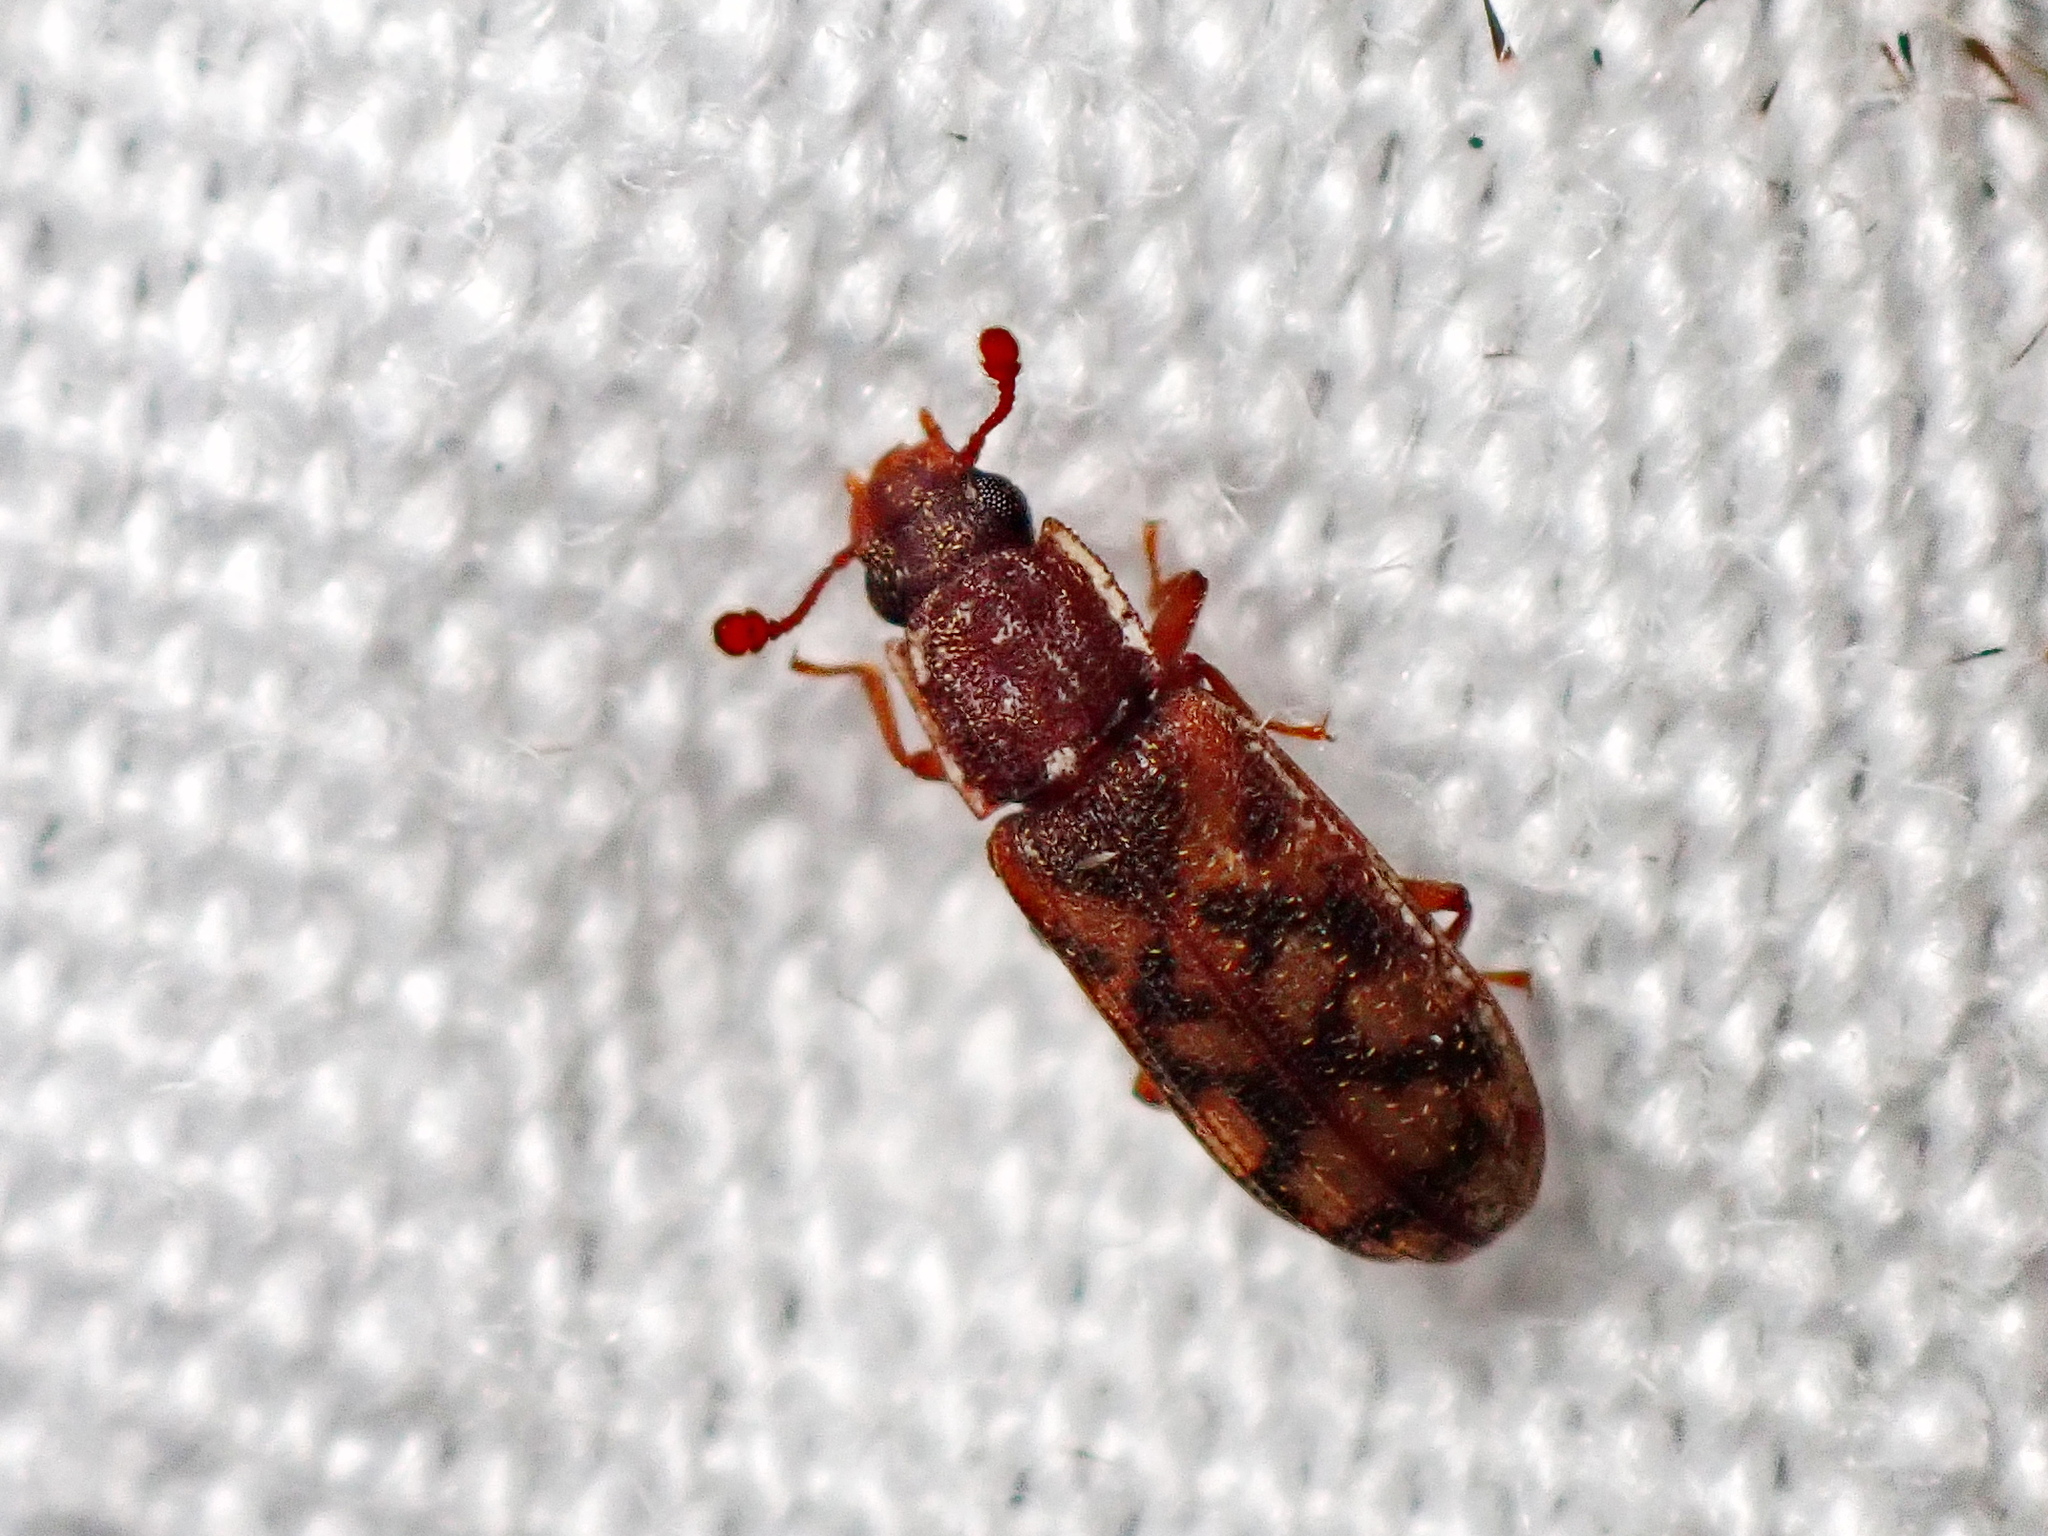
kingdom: Animalia
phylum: Arthropoda
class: Insecta
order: Coleoptera
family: Zopheridae
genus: Bitoma
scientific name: Bitoma insularis
